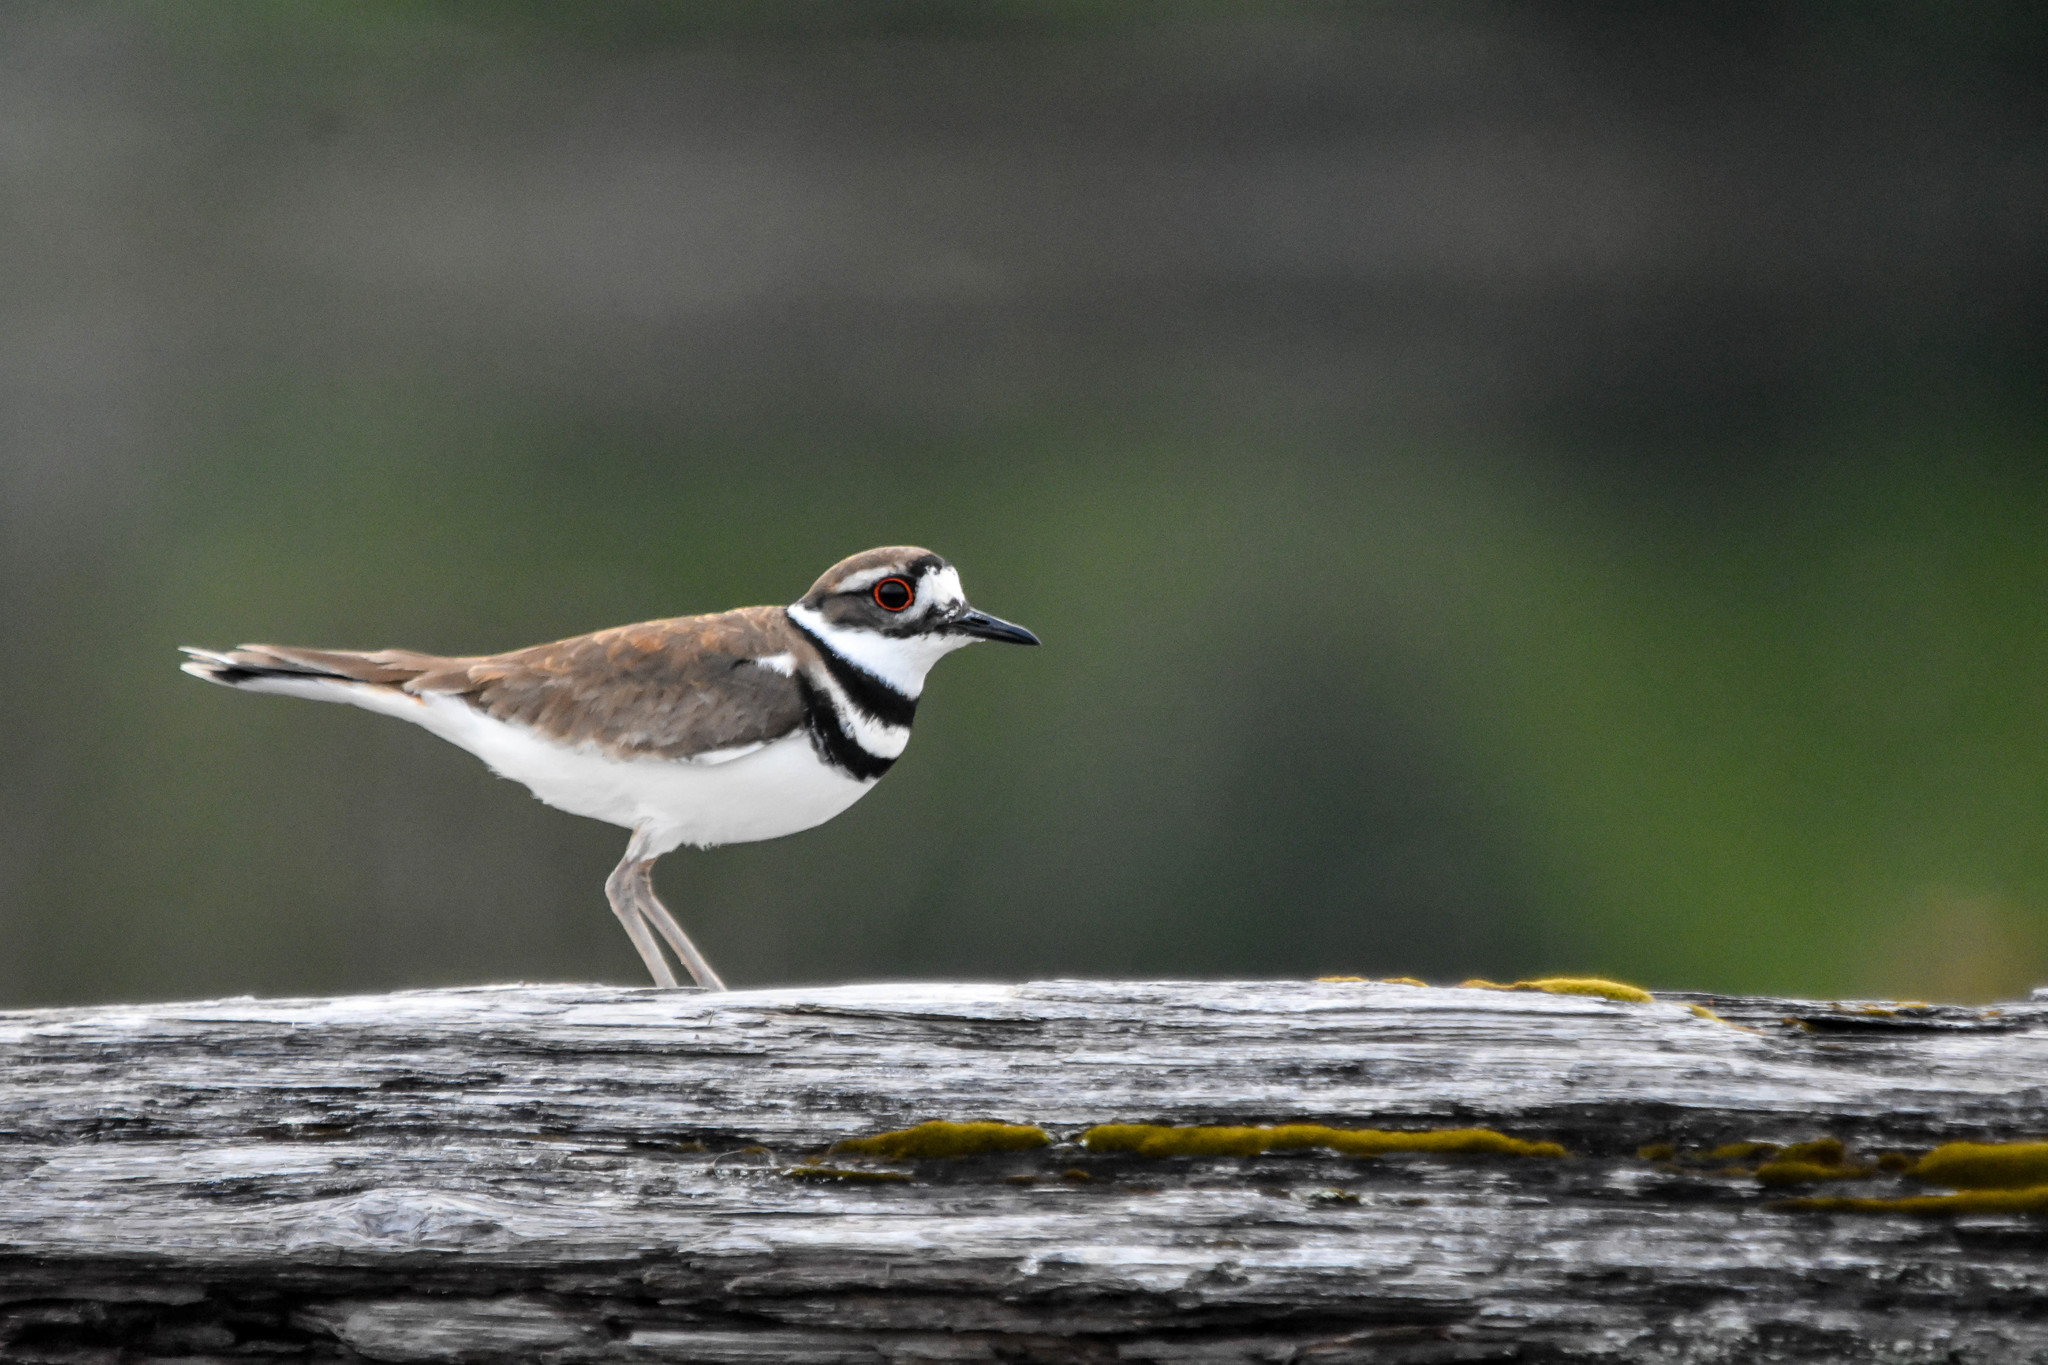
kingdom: Animalia
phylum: Chordata
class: Aves
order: Charadriiformes
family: Charadriidae
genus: Charadrius
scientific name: Charadrius vociferus
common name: Killdeer
